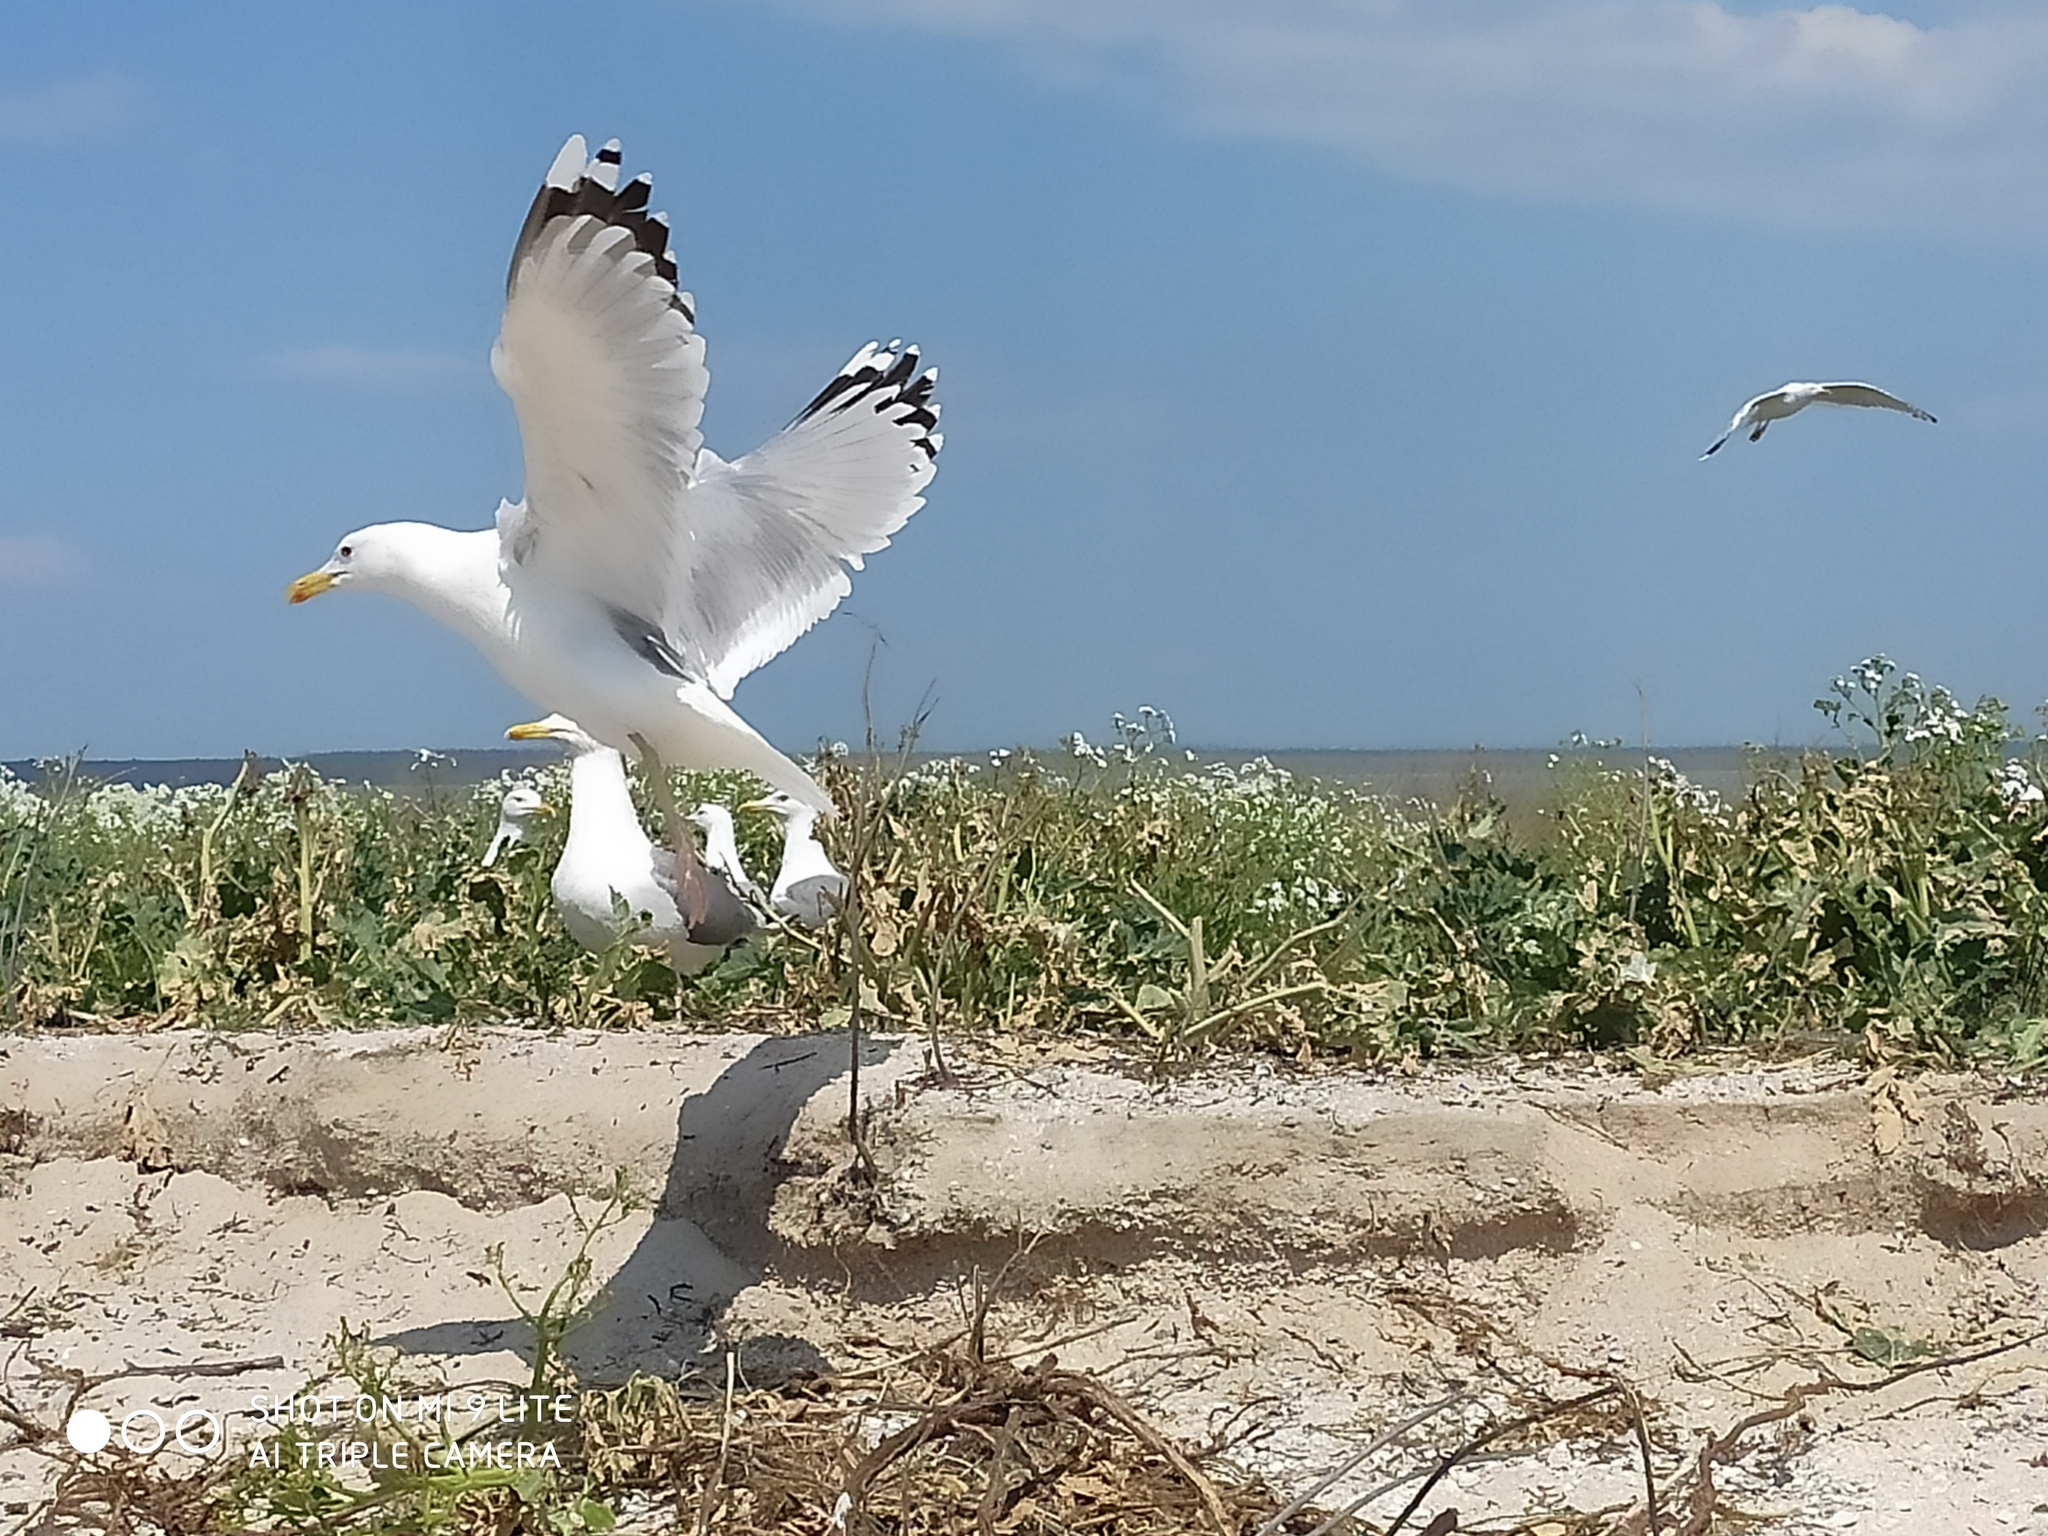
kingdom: Animalia
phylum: Chordata
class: Aves
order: Charadriiformes
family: Laridae
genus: Larus
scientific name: Larus cachinnans
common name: Caspian gull
